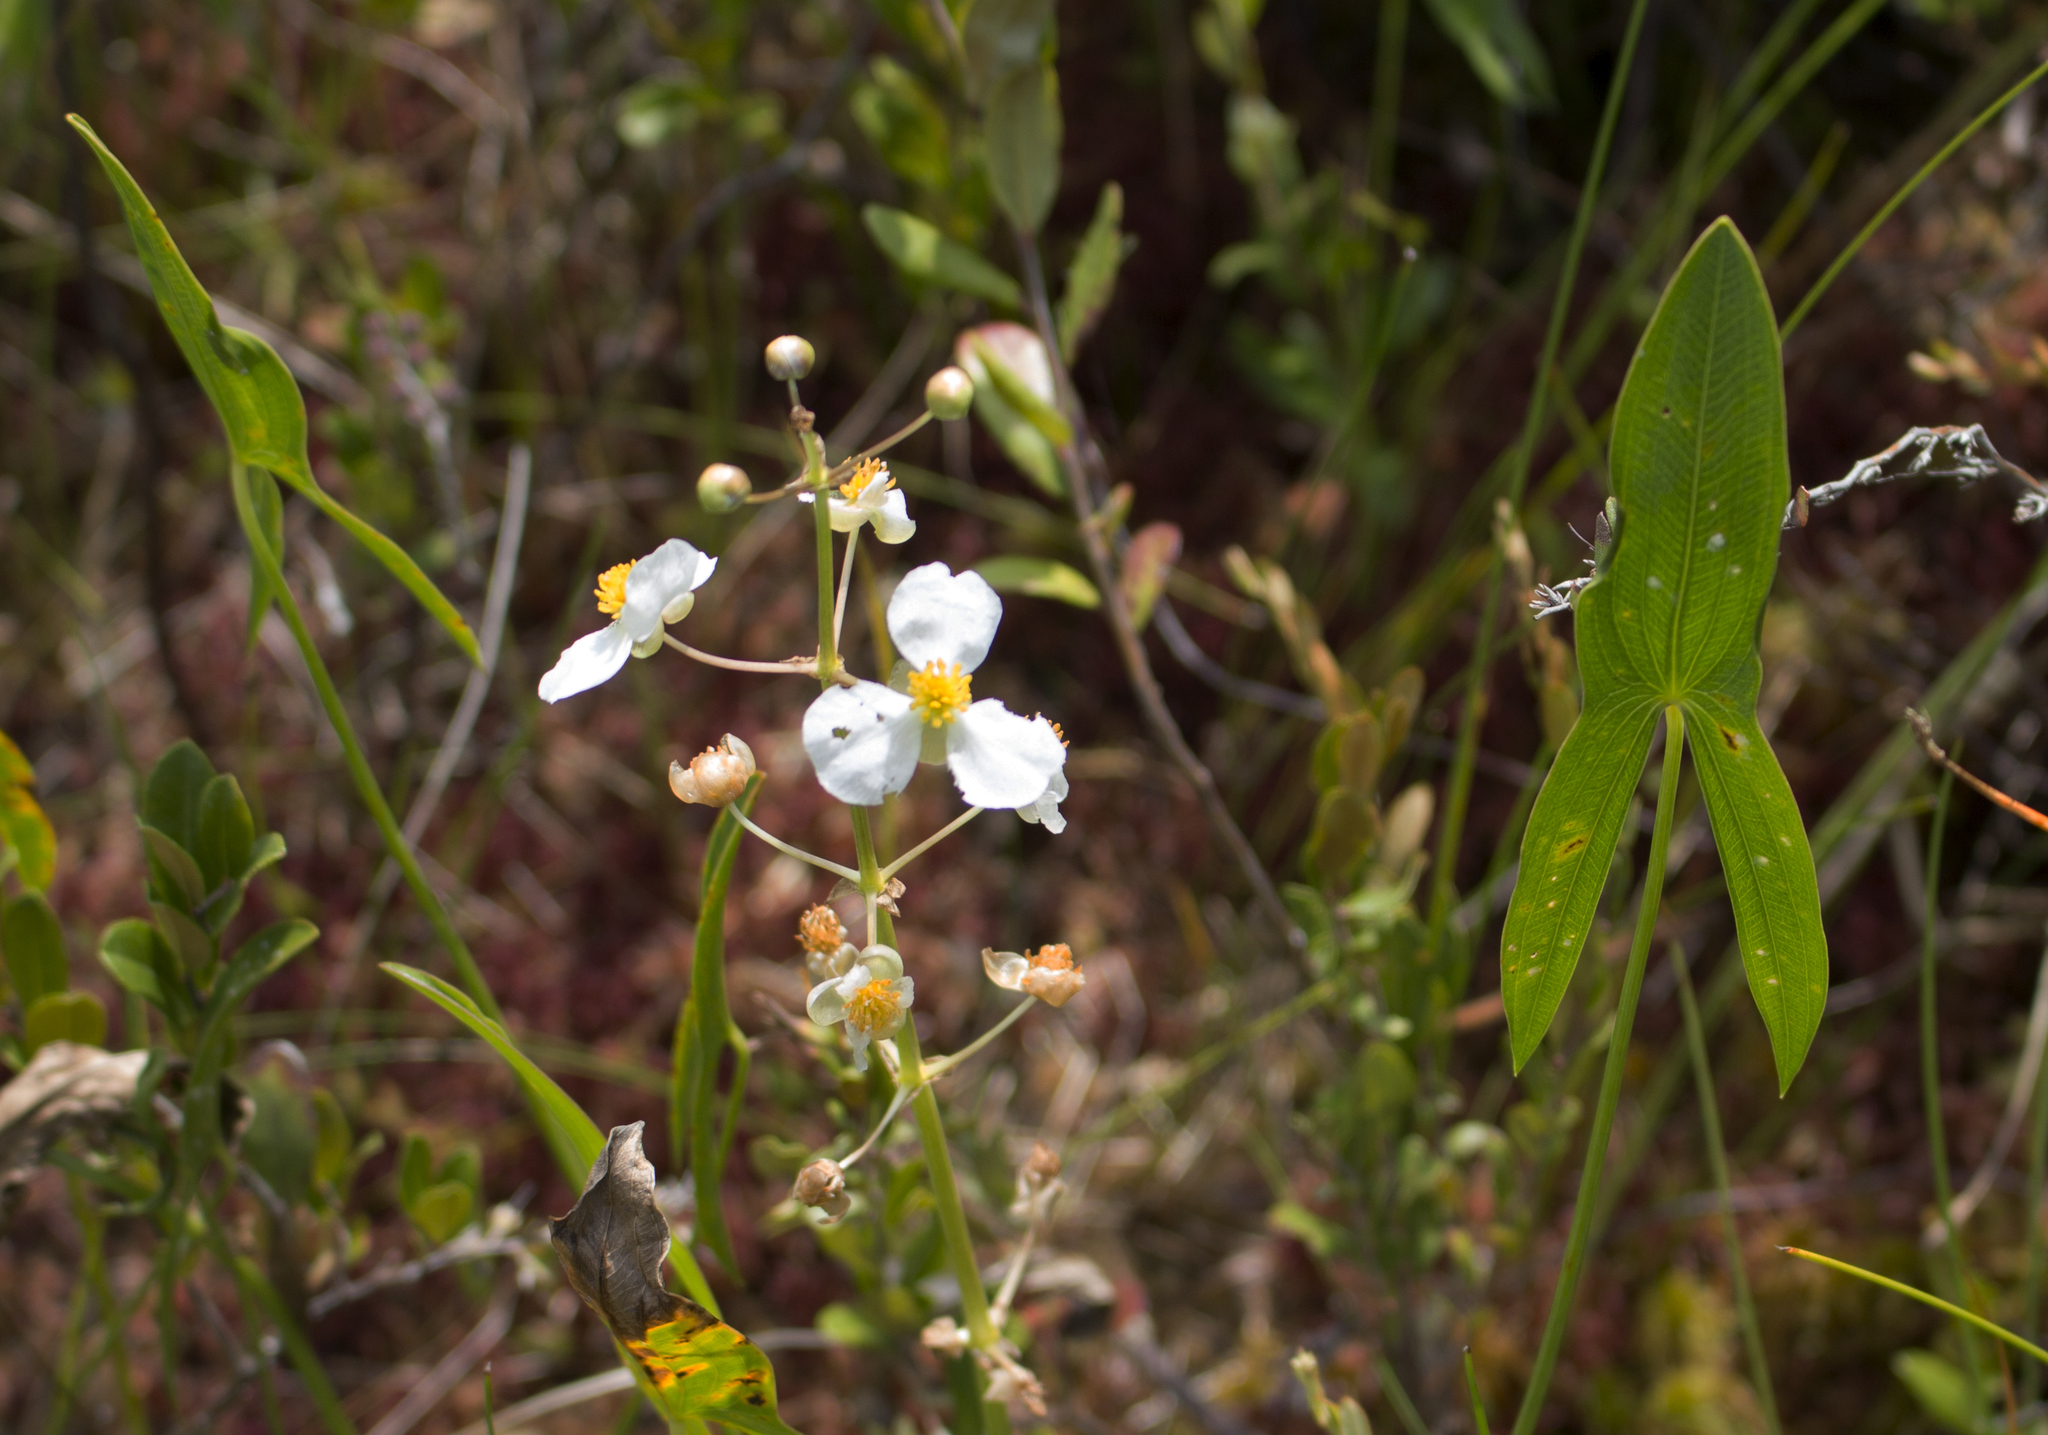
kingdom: Plantae
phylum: Tracheophyta
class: Liliopsida
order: Alismatales
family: Alismataceae
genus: Sagittaria
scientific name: Sagittaria latifolia
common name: Duck-potato
